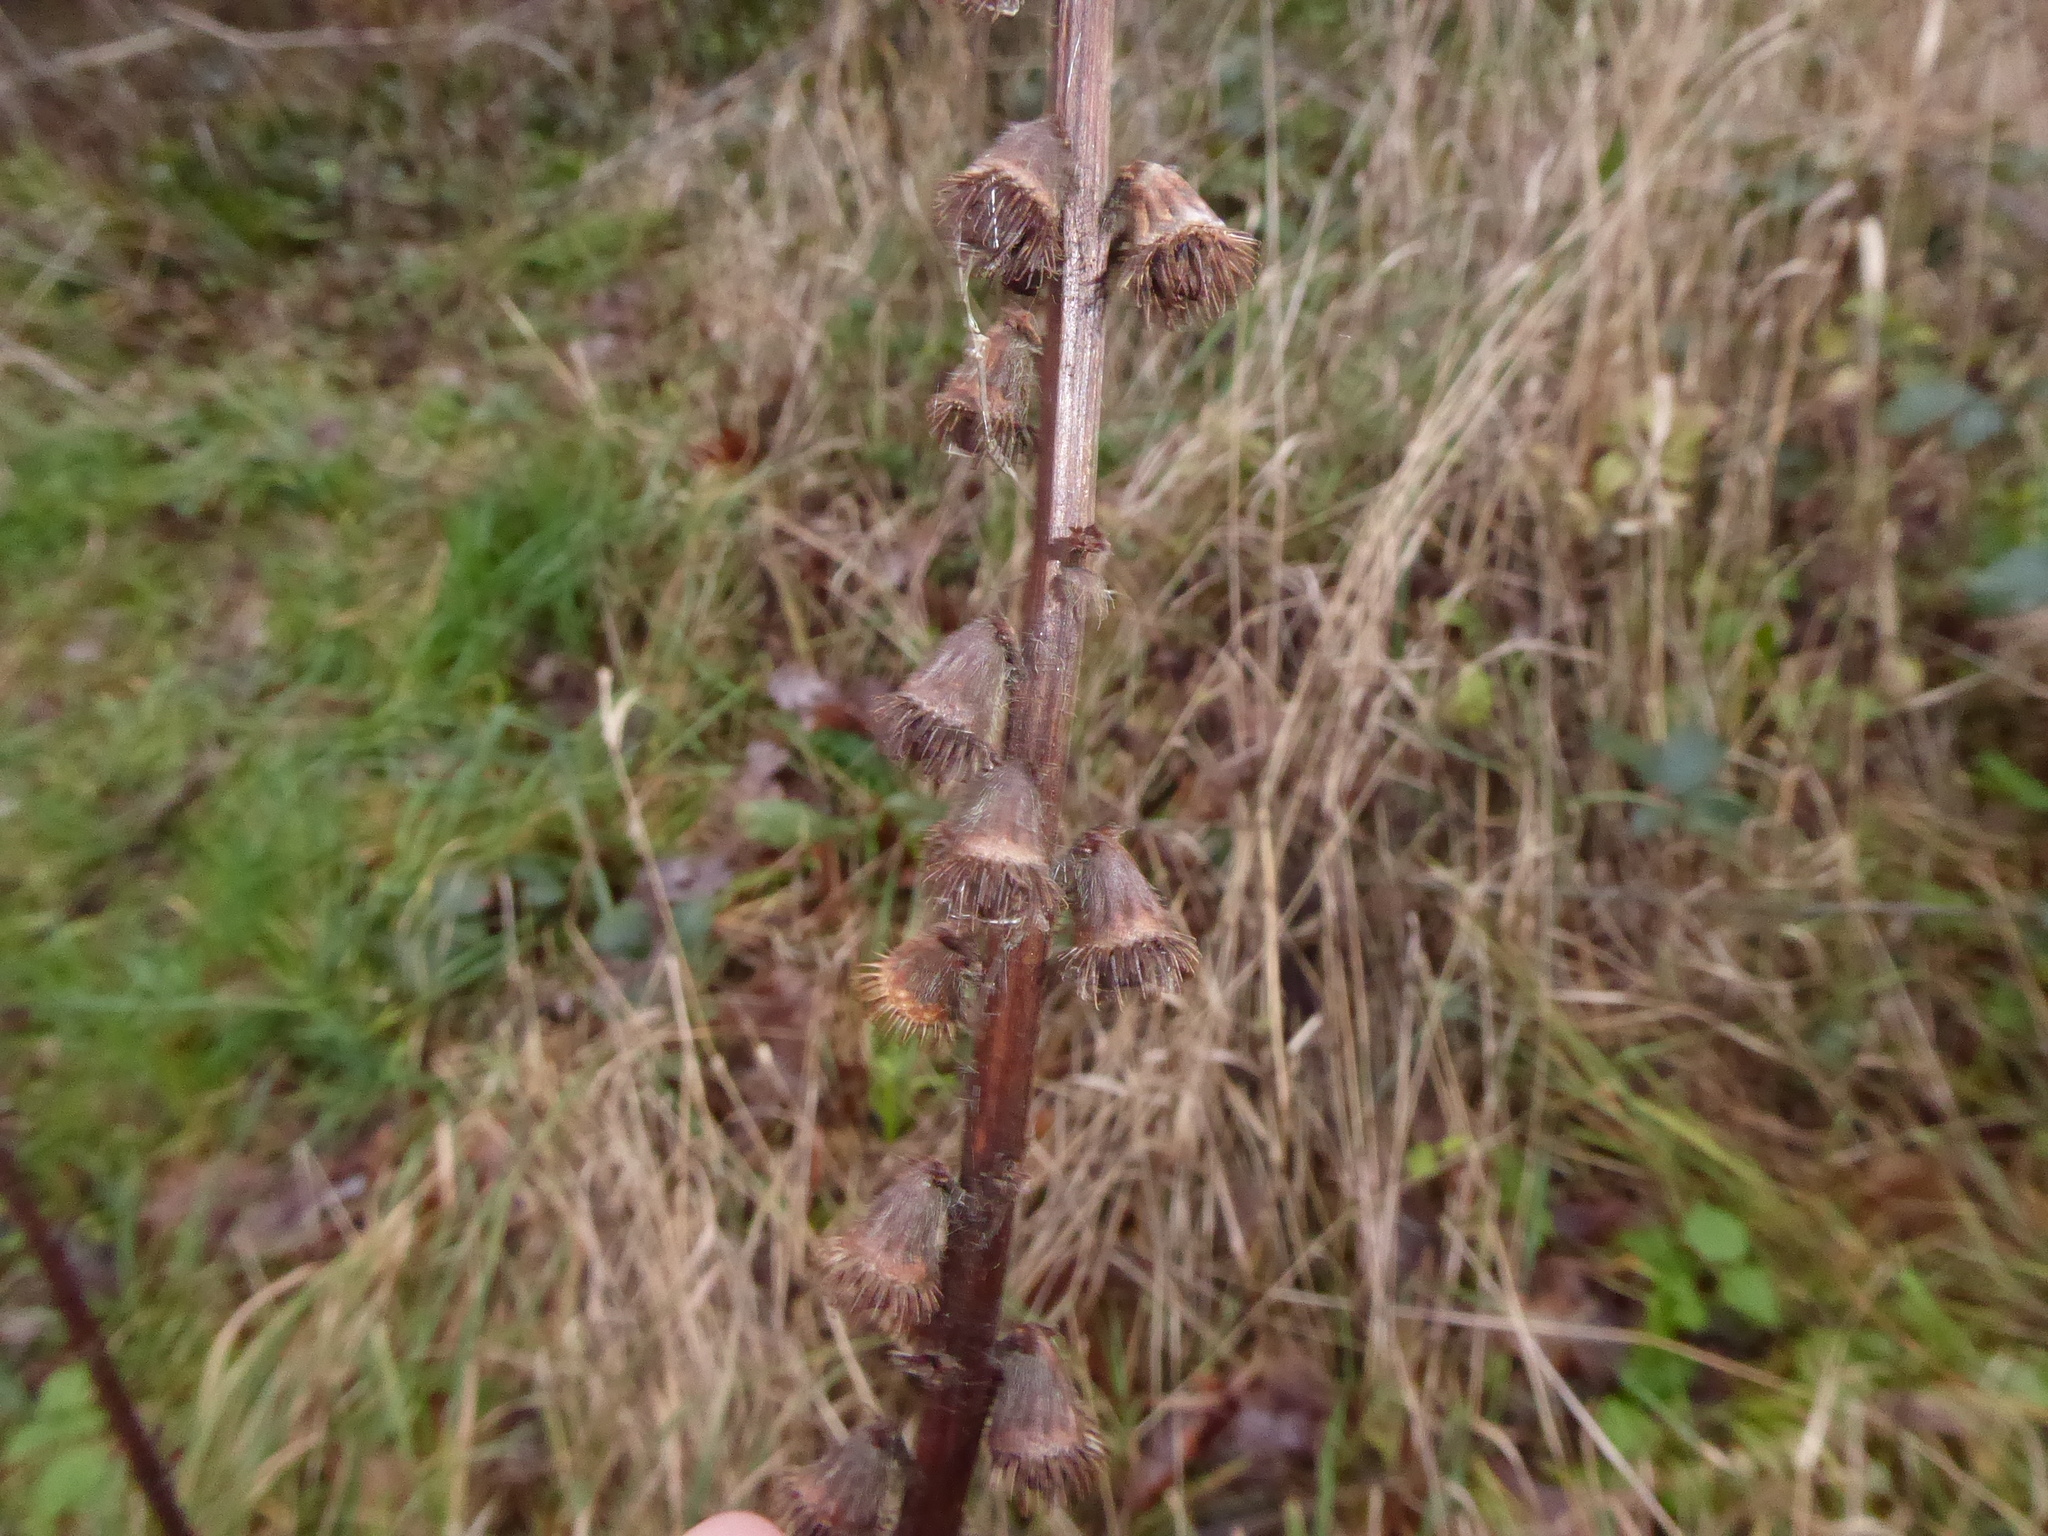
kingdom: Plantae
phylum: Tracheophyta
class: Magnoliopsida
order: Rosales
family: Rosaceae
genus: Agrimonia
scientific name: Agrimonia eupatoria
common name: Agrimony
